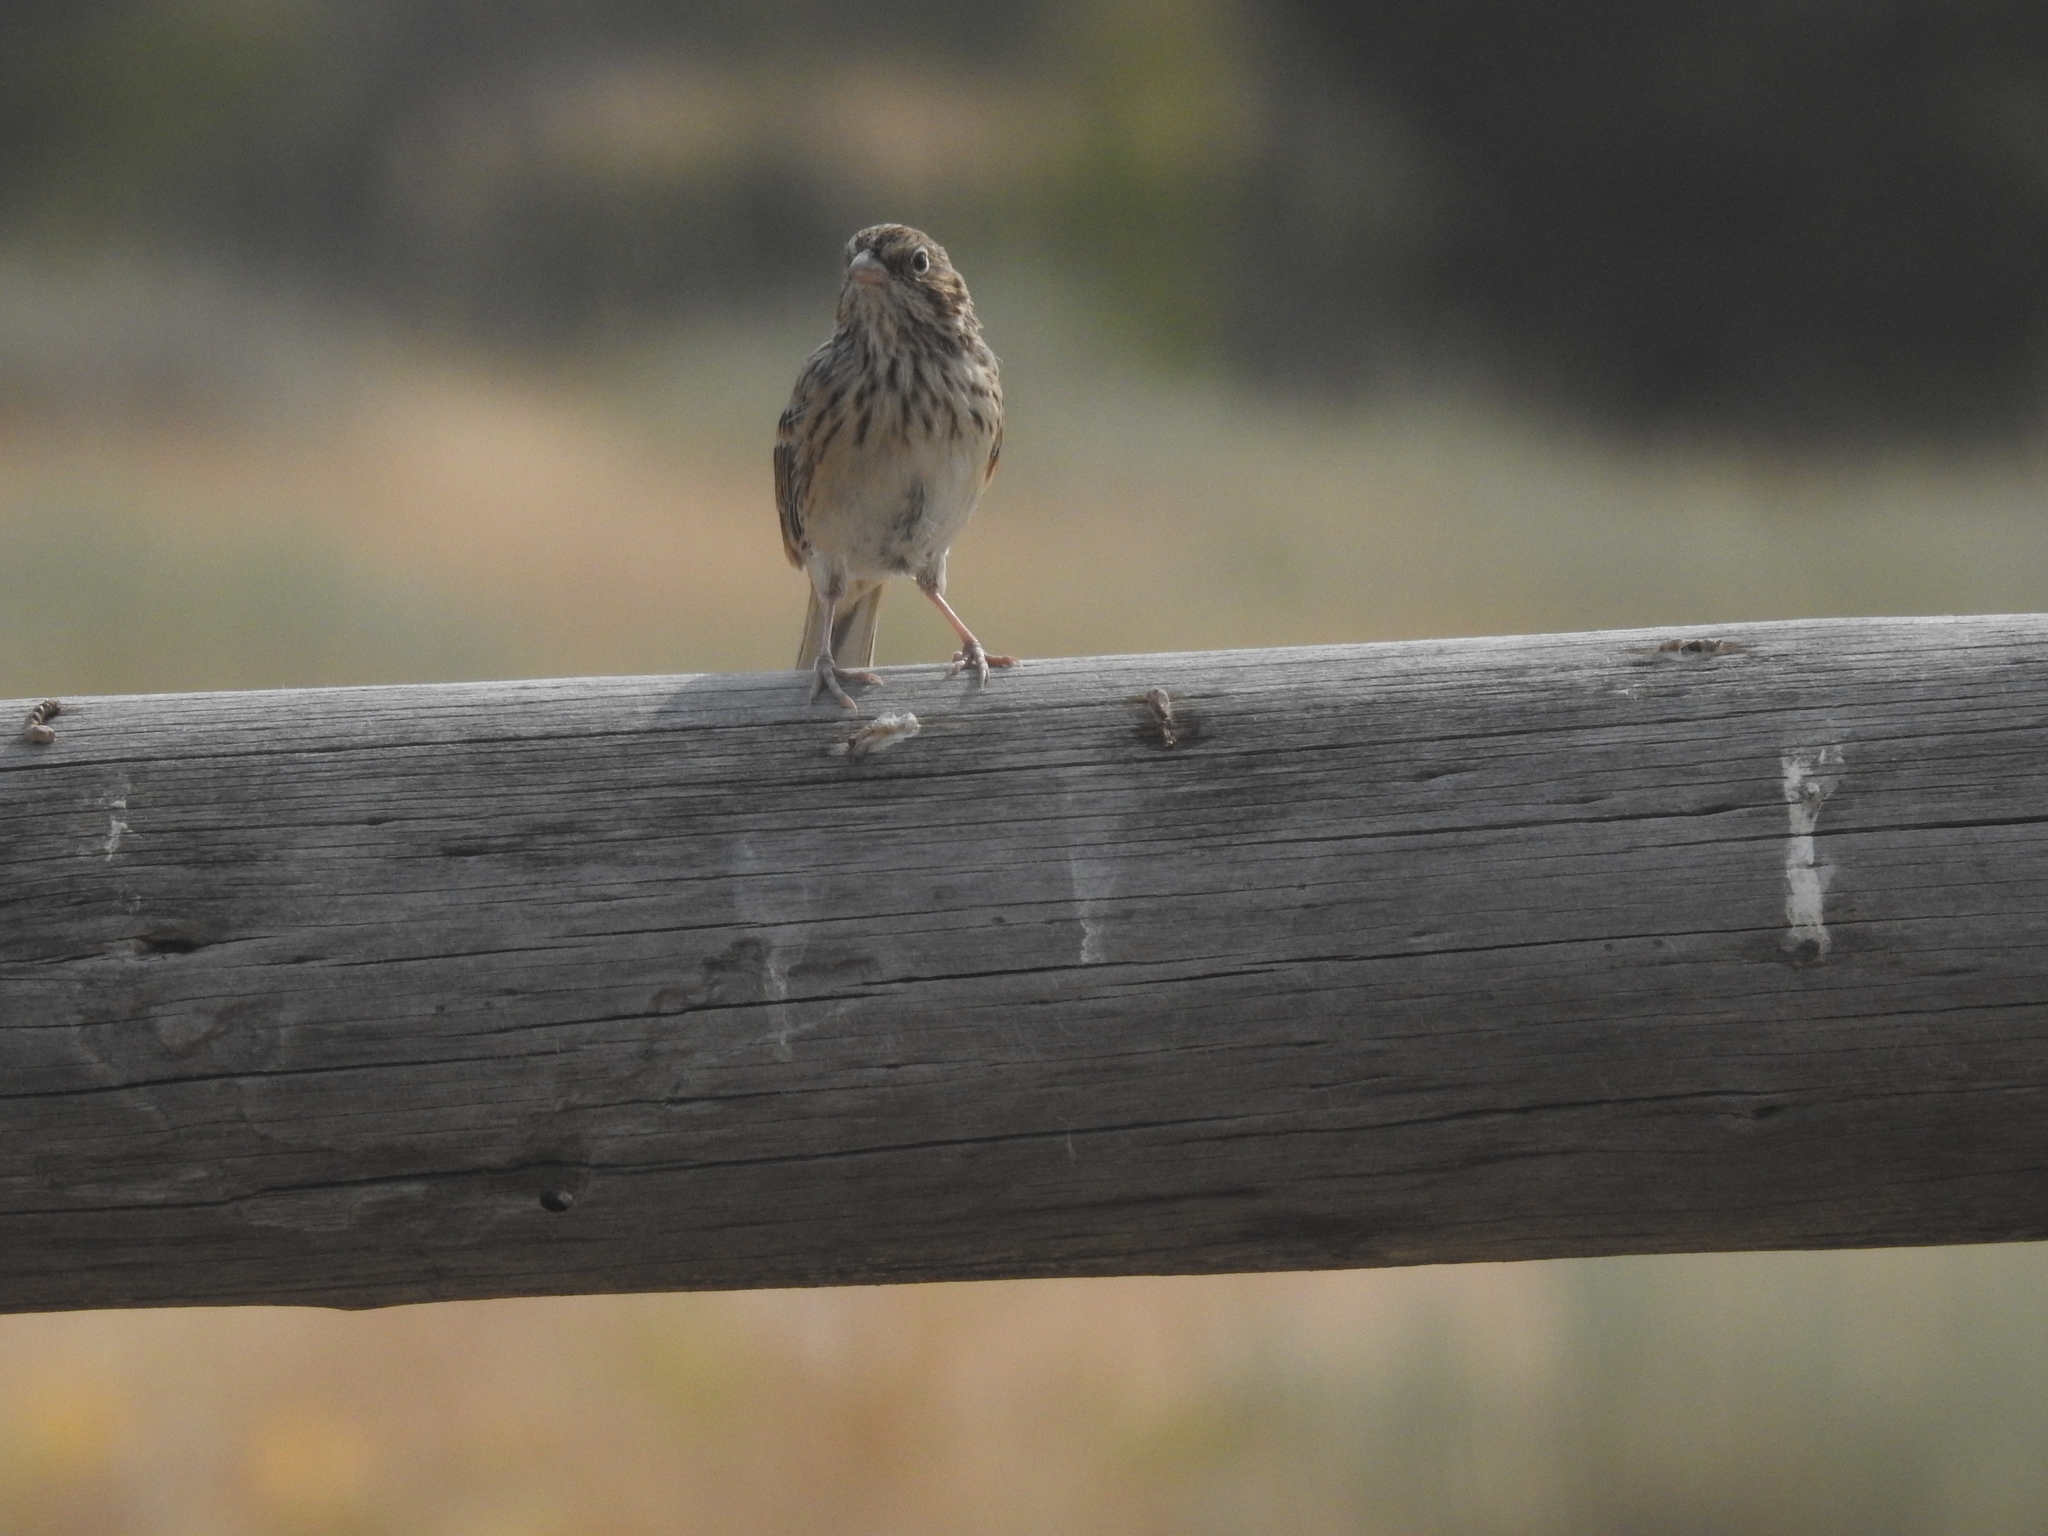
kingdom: Animalia
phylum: Chordata
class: Aves
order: Passeriformes
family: Passerellidae
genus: Pooecetes
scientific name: Pooecetes gramineus
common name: Vesper sparrow
